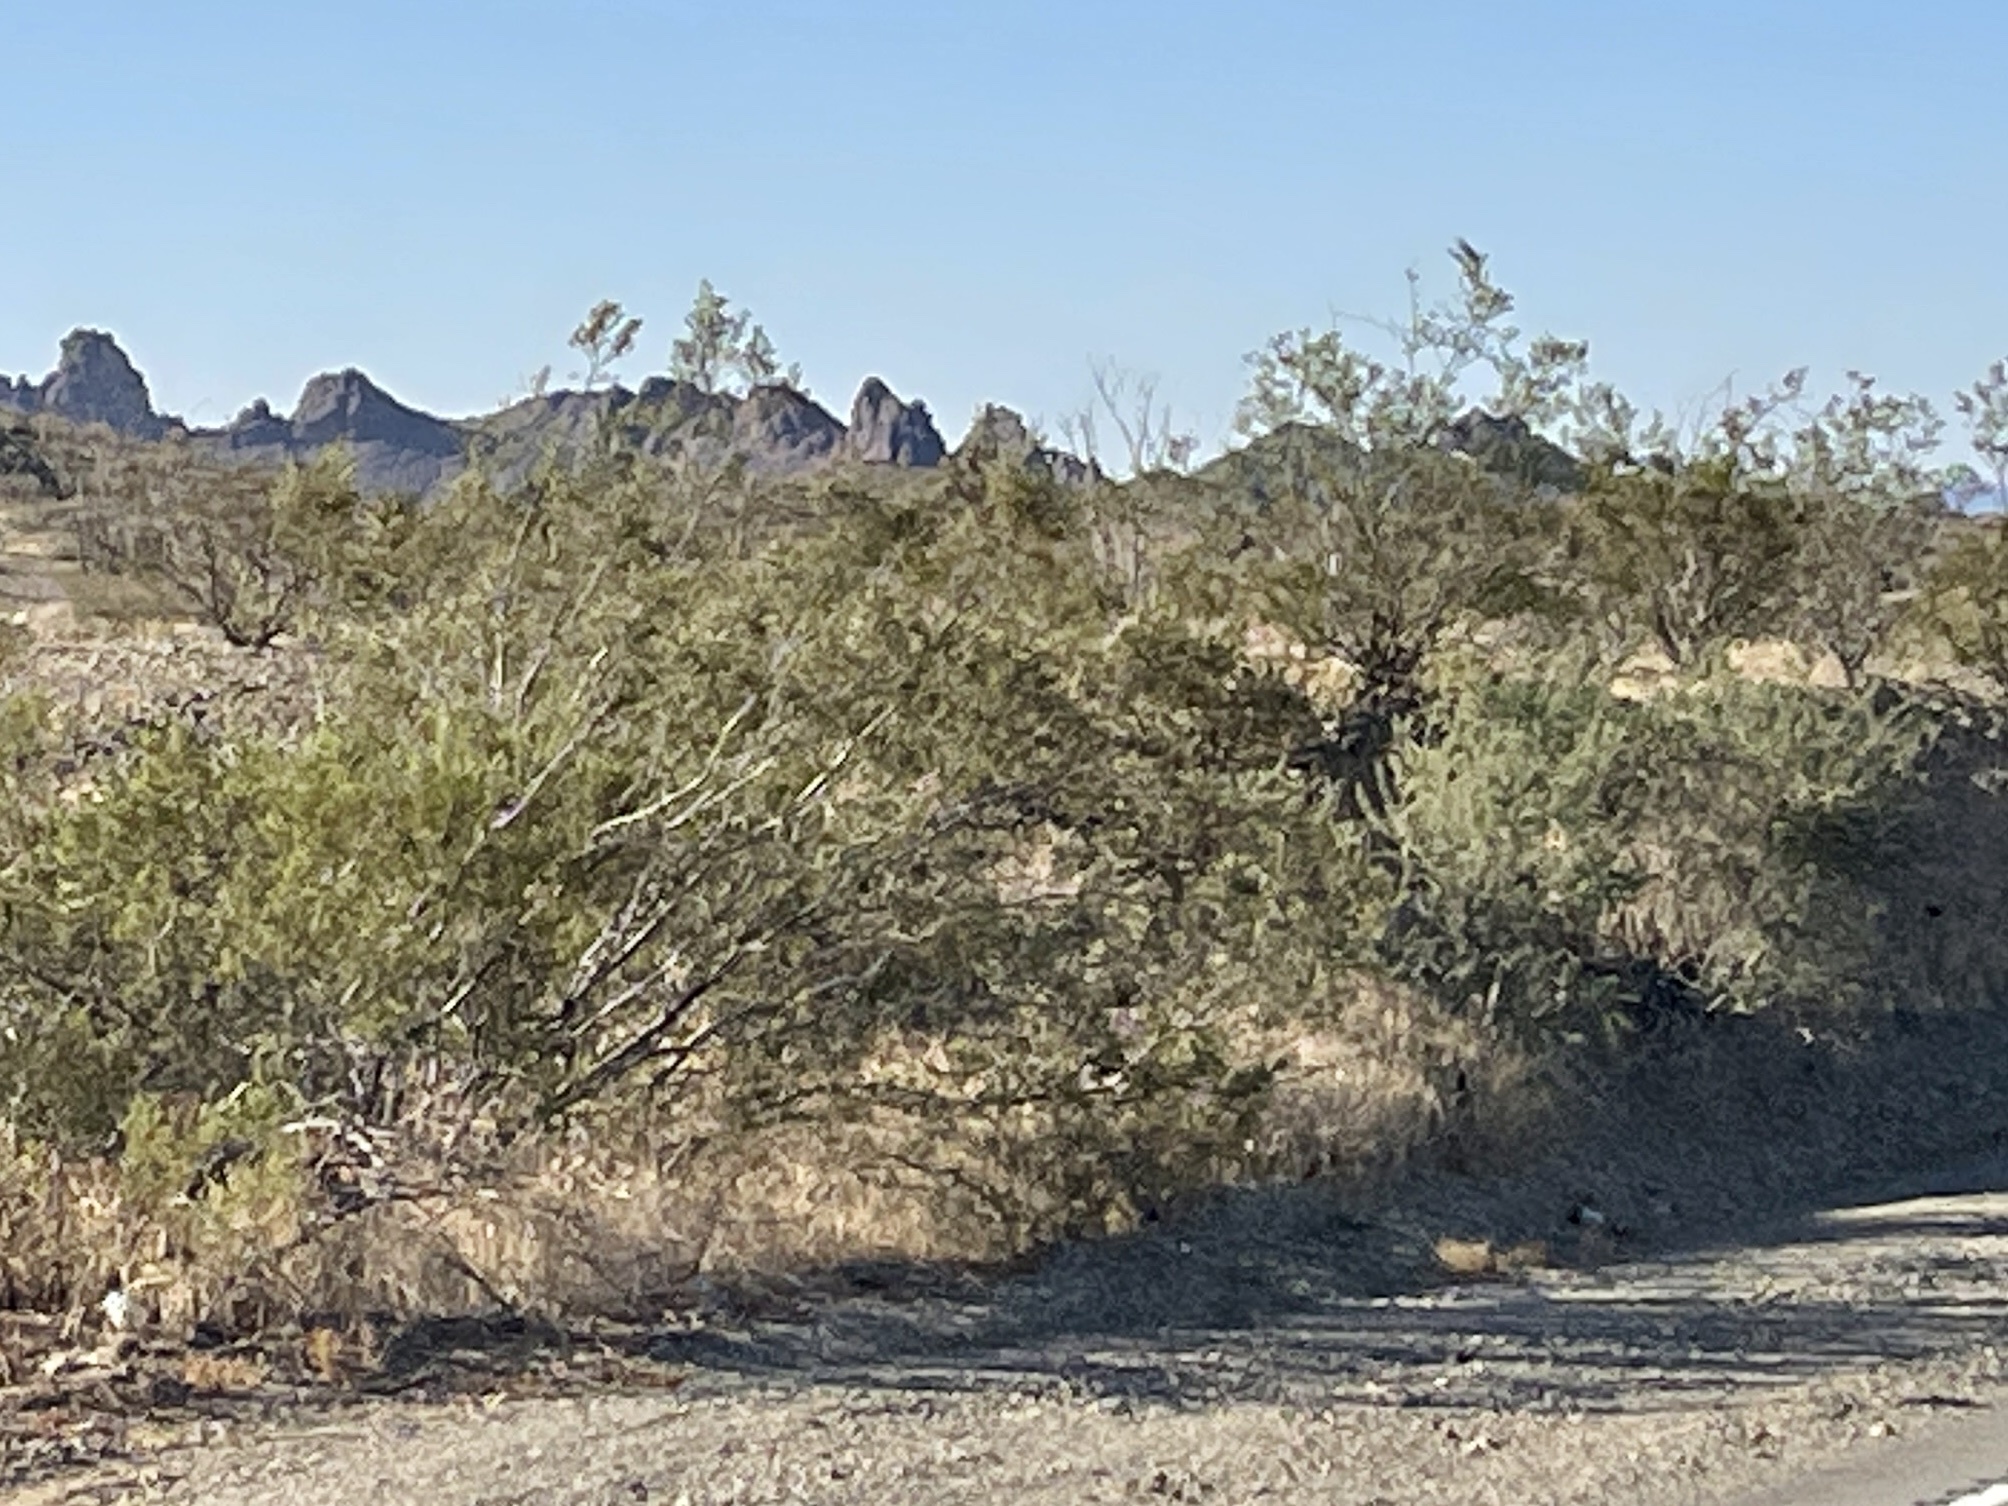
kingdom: Plantae
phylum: Tracheophyta
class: Magnoliopsida
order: Zygophyllales
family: Zygophyllaceae
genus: Larrea
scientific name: Larrea tridentata
